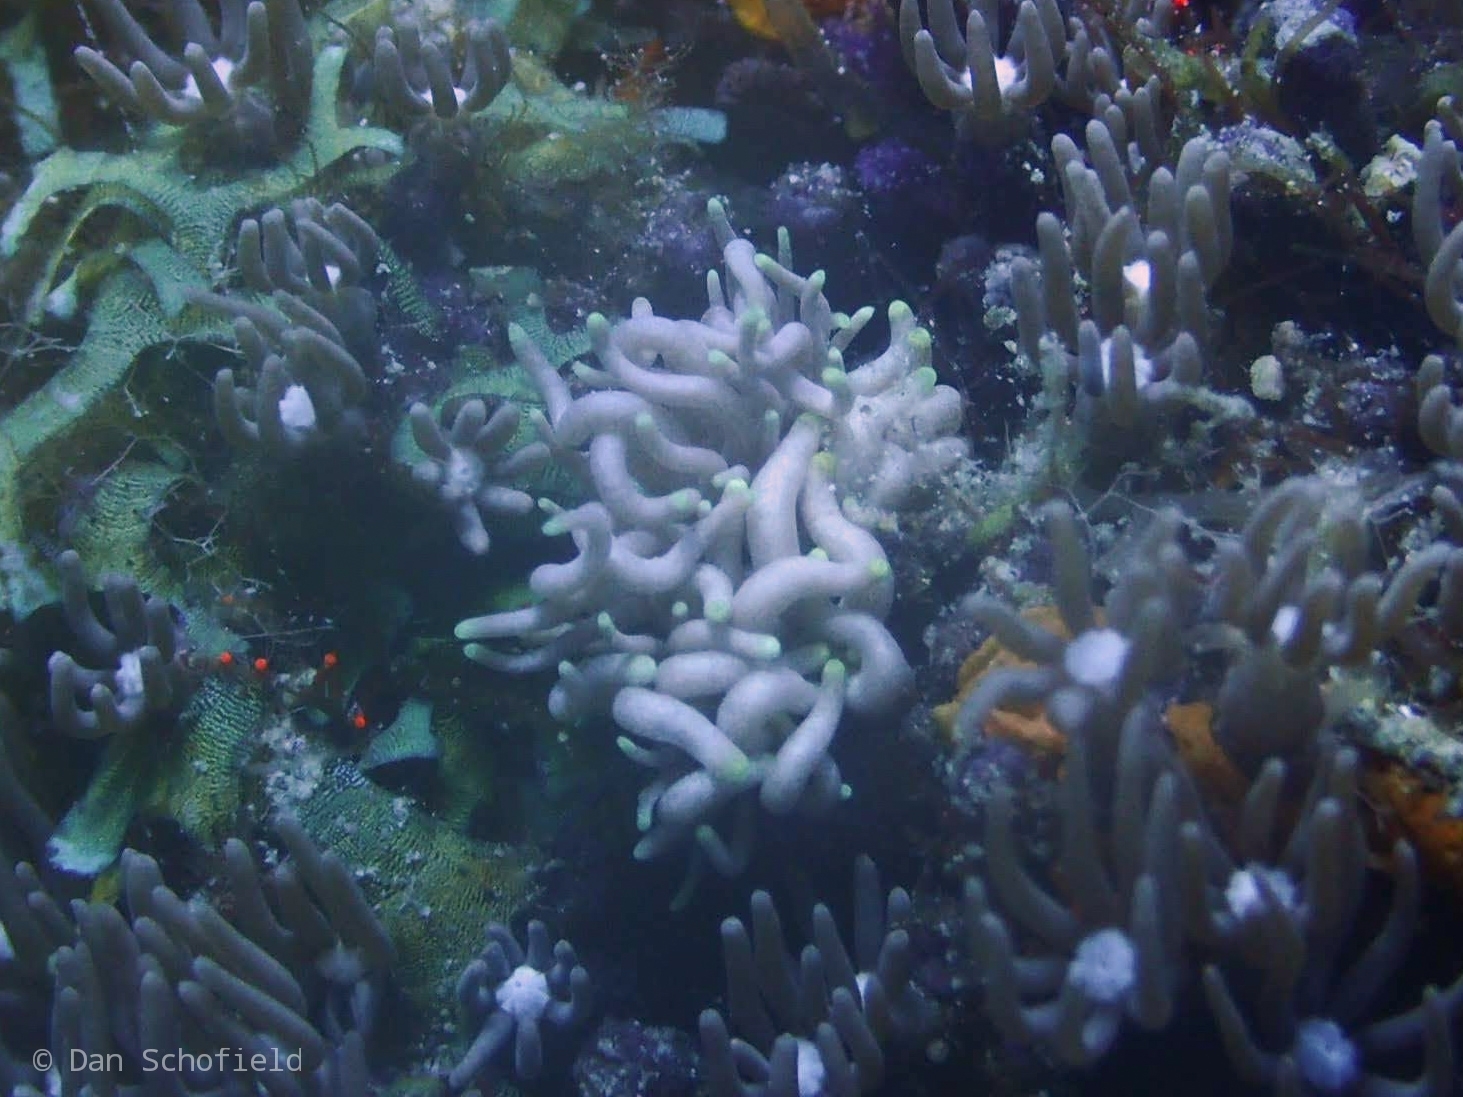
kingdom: Animalia
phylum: Mollusca
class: Gastropoda
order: Nudibranchia
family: Myrrhinidae
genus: Phyllodesmium
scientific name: Phyllodesmium briareum
